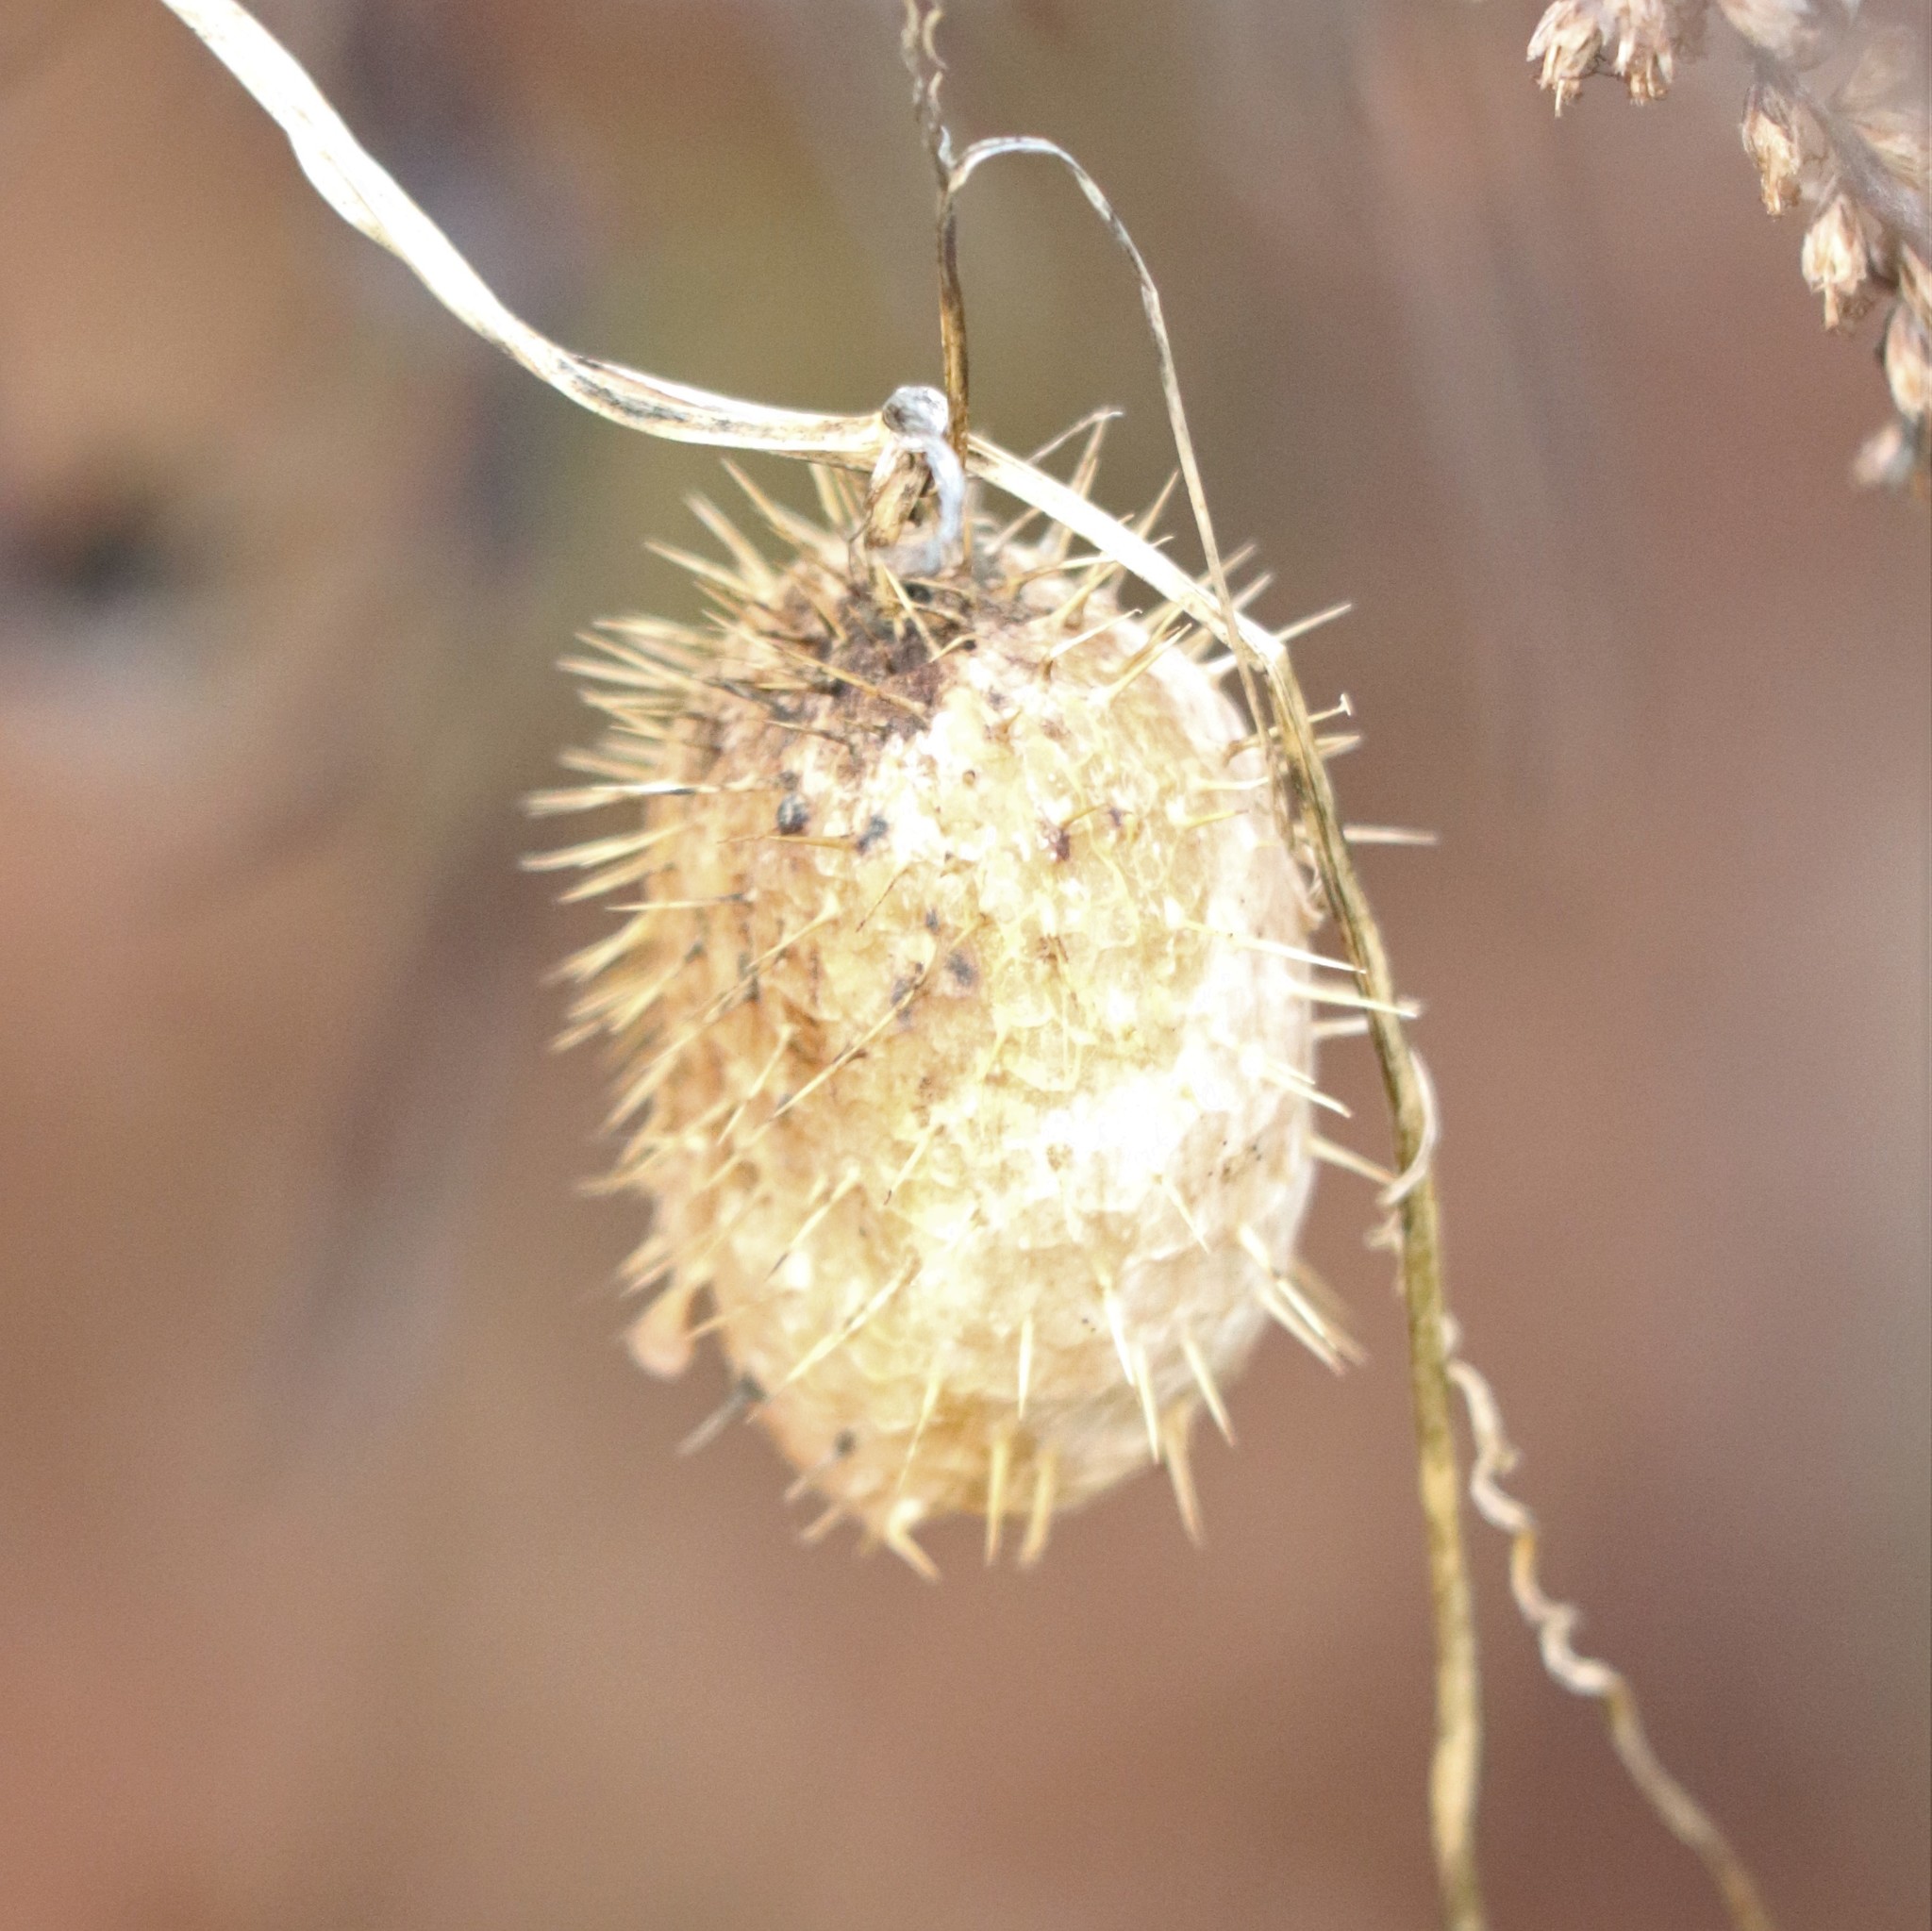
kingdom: Plantae
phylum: Tracheophyta
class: Magnoliopsida
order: Cucurbitales
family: Cucurbitaceae
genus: Echinocystis
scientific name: Echinocystis lobata
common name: Wild cucumber
